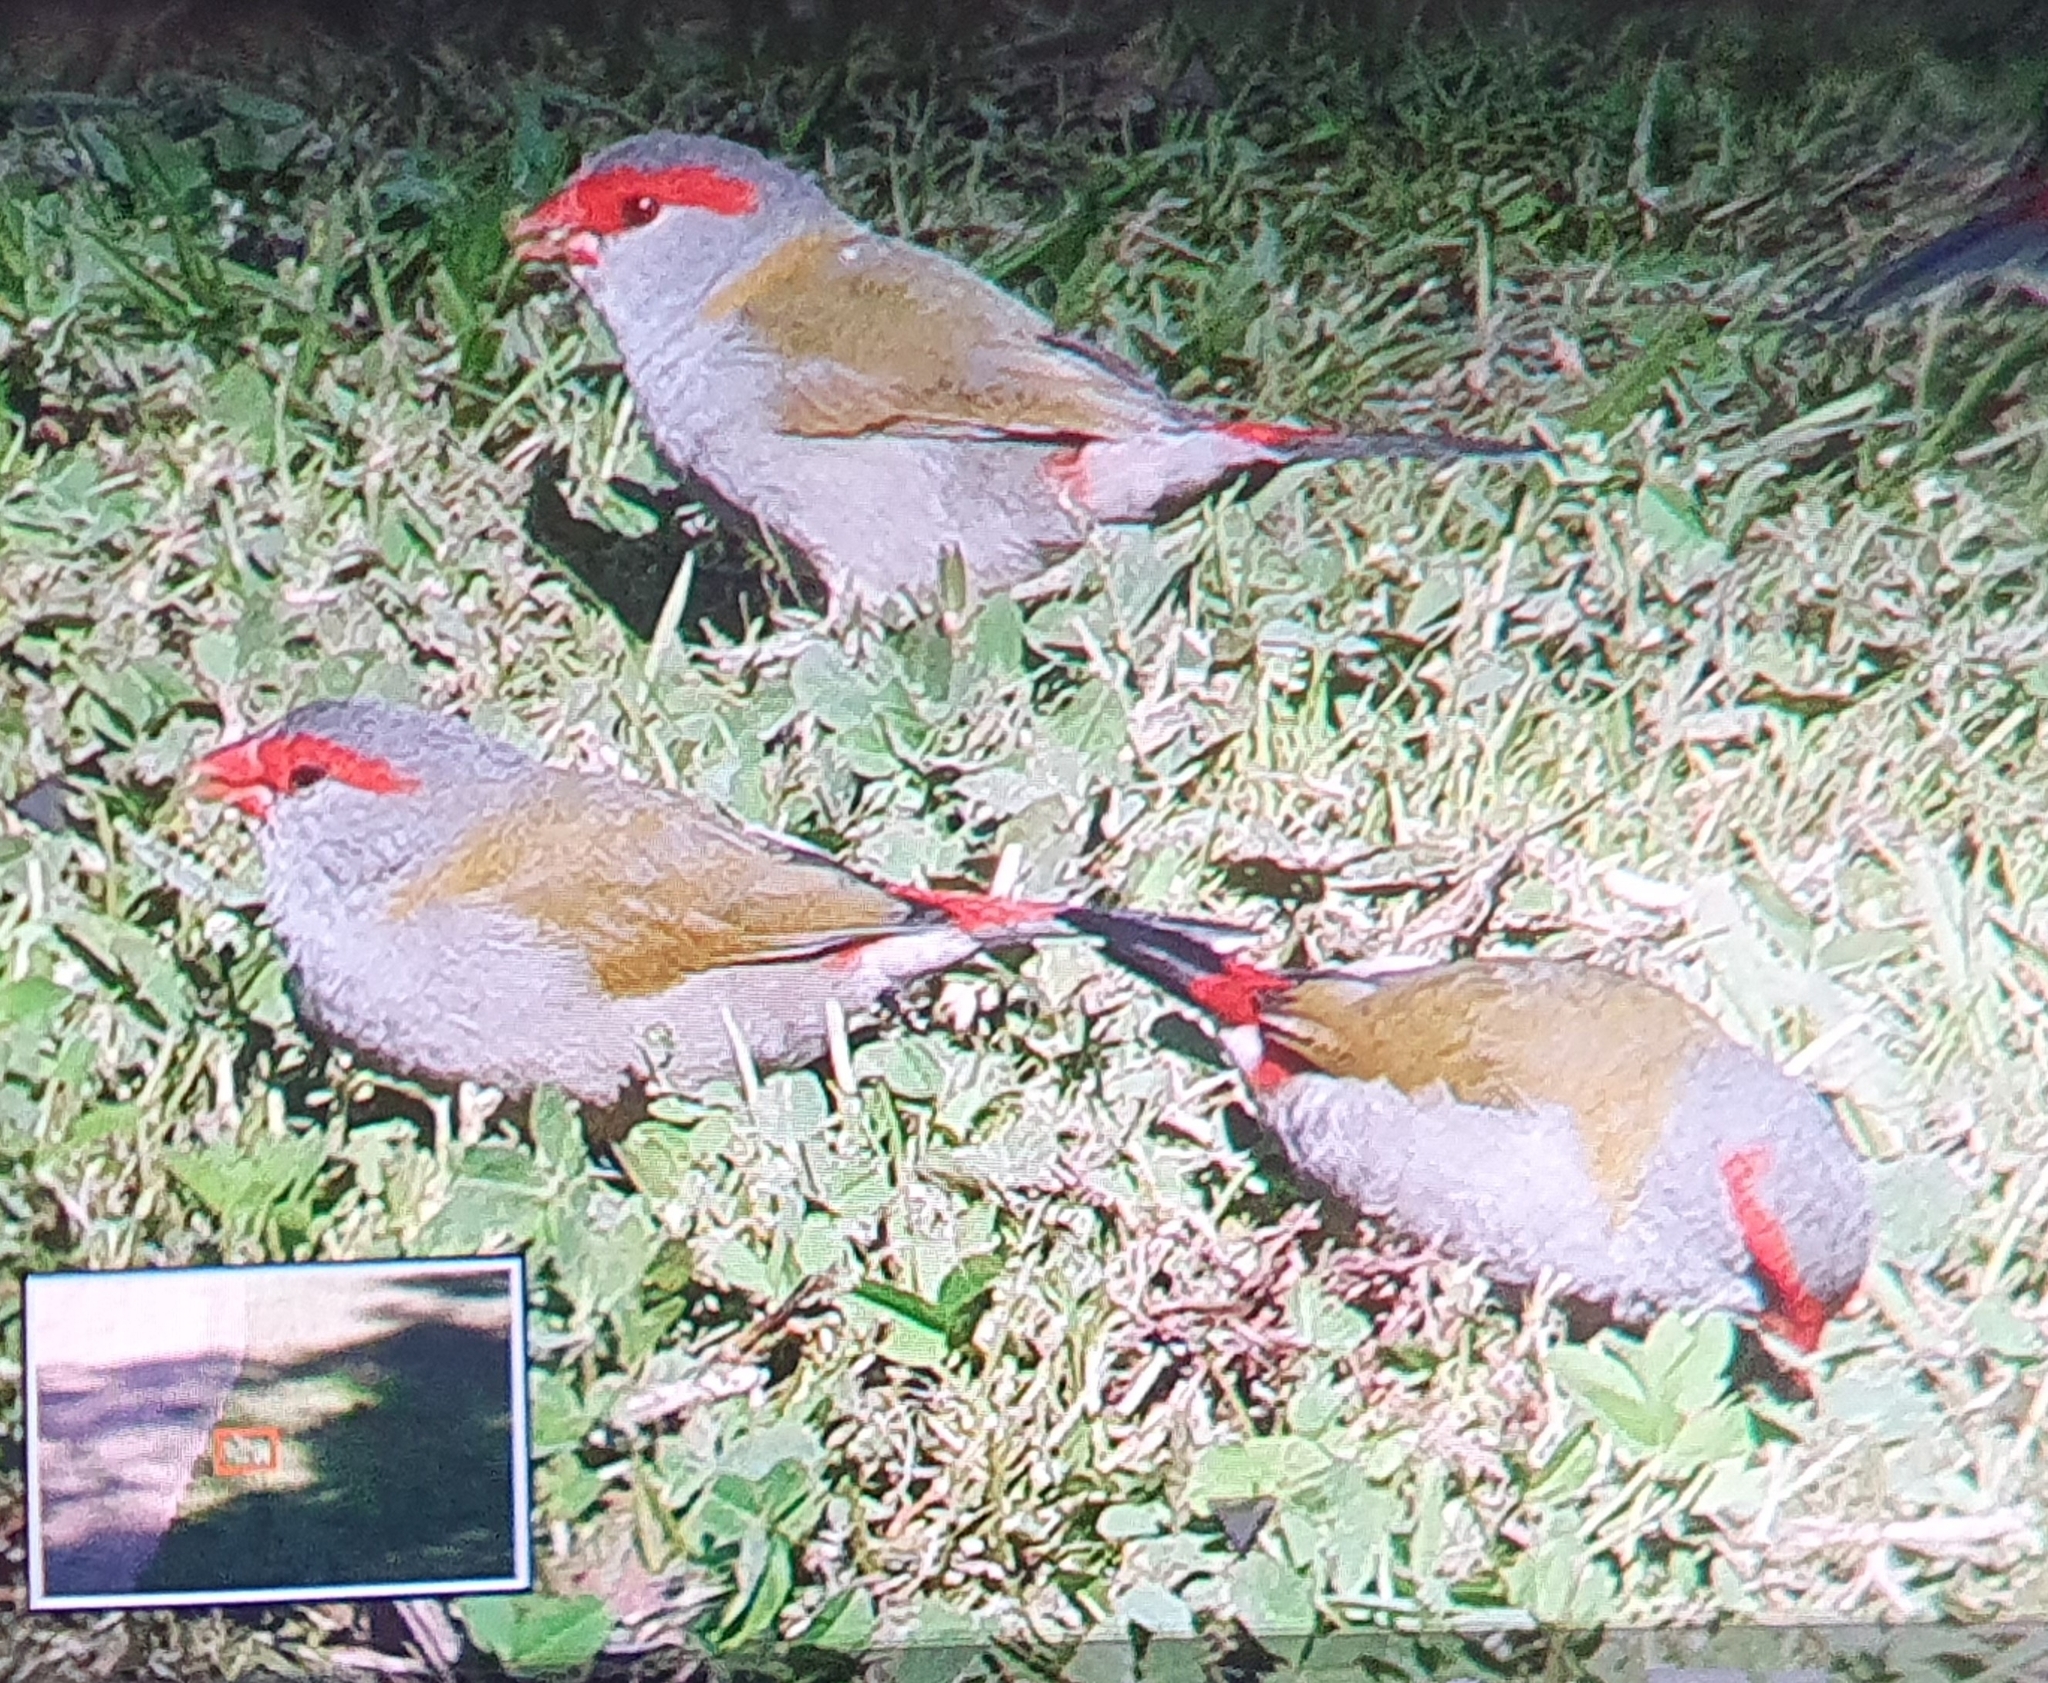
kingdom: Animalia
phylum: Chordata
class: Aves
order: Passeriformes
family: Estrildidae
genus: Neochmia
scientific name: Neochmia temporalis
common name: Red-browed finch
